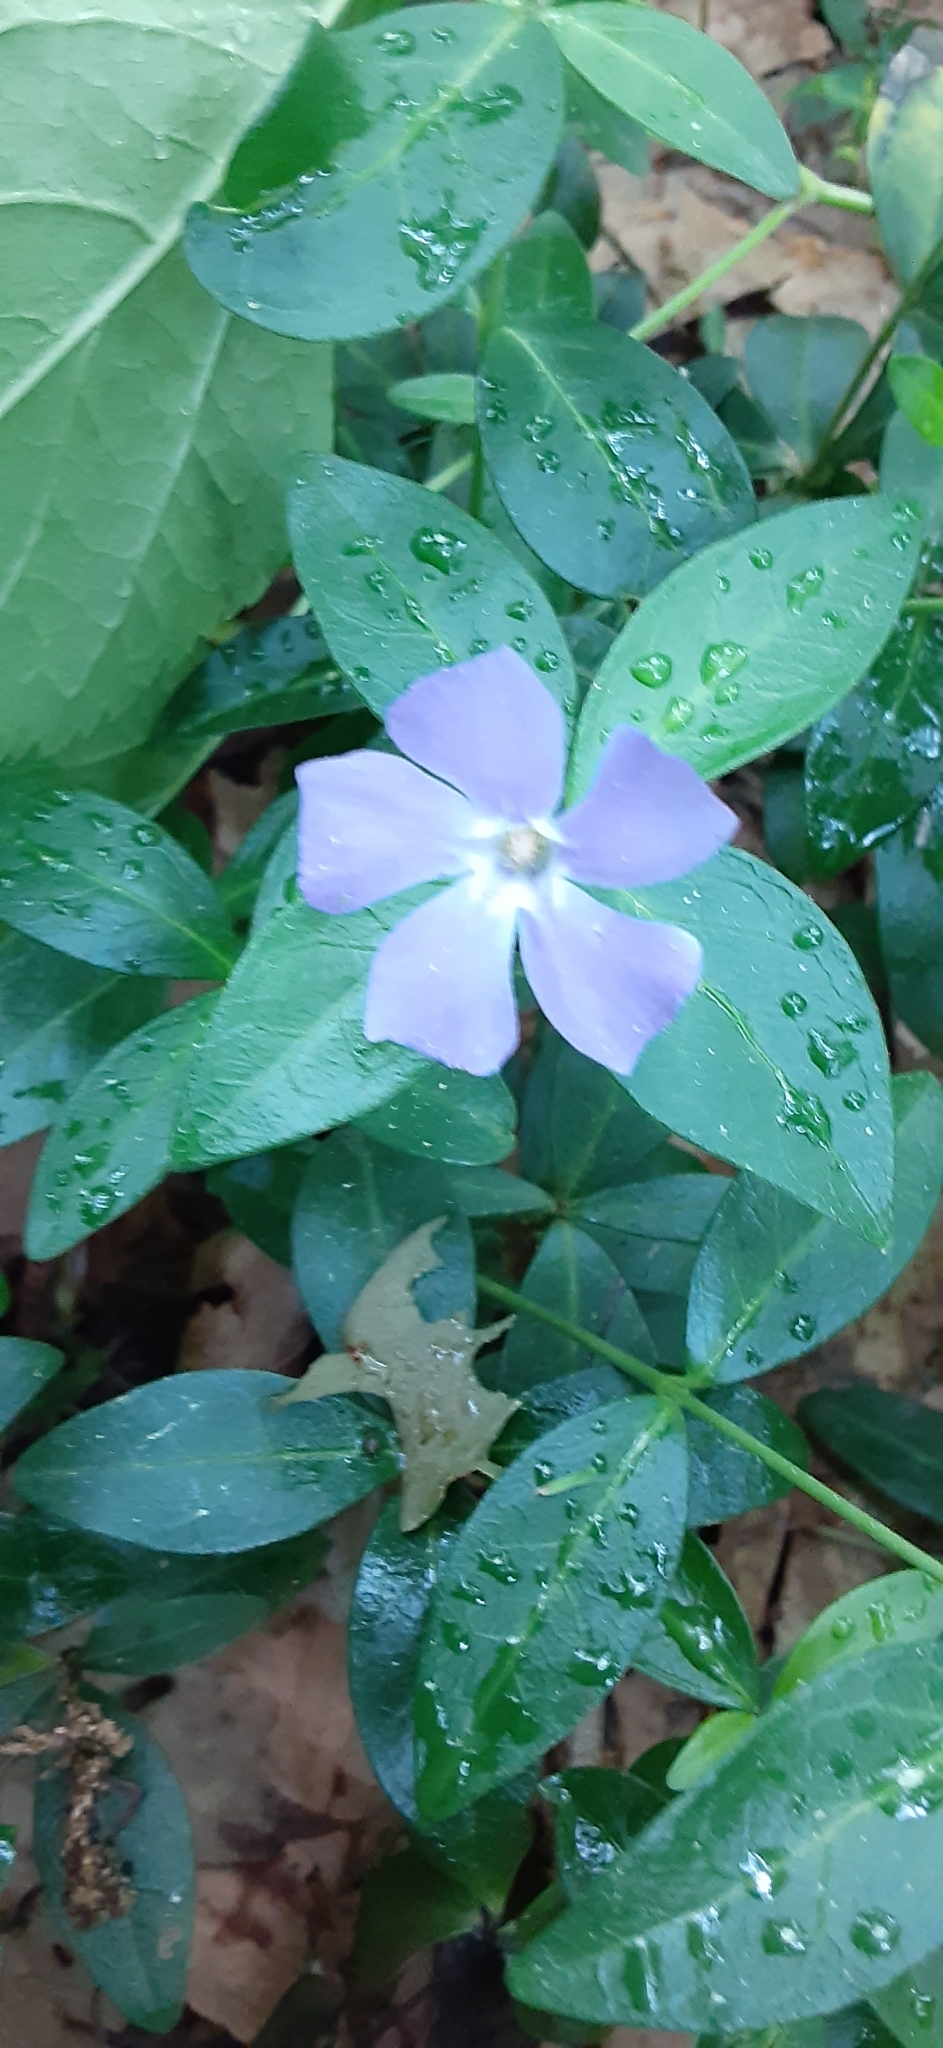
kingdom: Plantae
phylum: Tracheophyta
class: Magnoliopsida
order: Gentianales
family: Apocynaceae
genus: Vinca
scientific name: Vinca minor
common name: Lesser periwinkle
